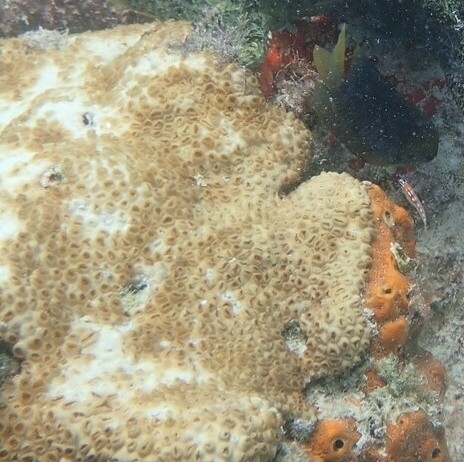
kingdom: Animalia
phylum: Cnidaria
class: Anthozoa
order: Zoantharia
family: Sphenopidae
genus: Palythoa
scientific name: Palythoa caribaeorum
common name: Encrusting colonial anemone
